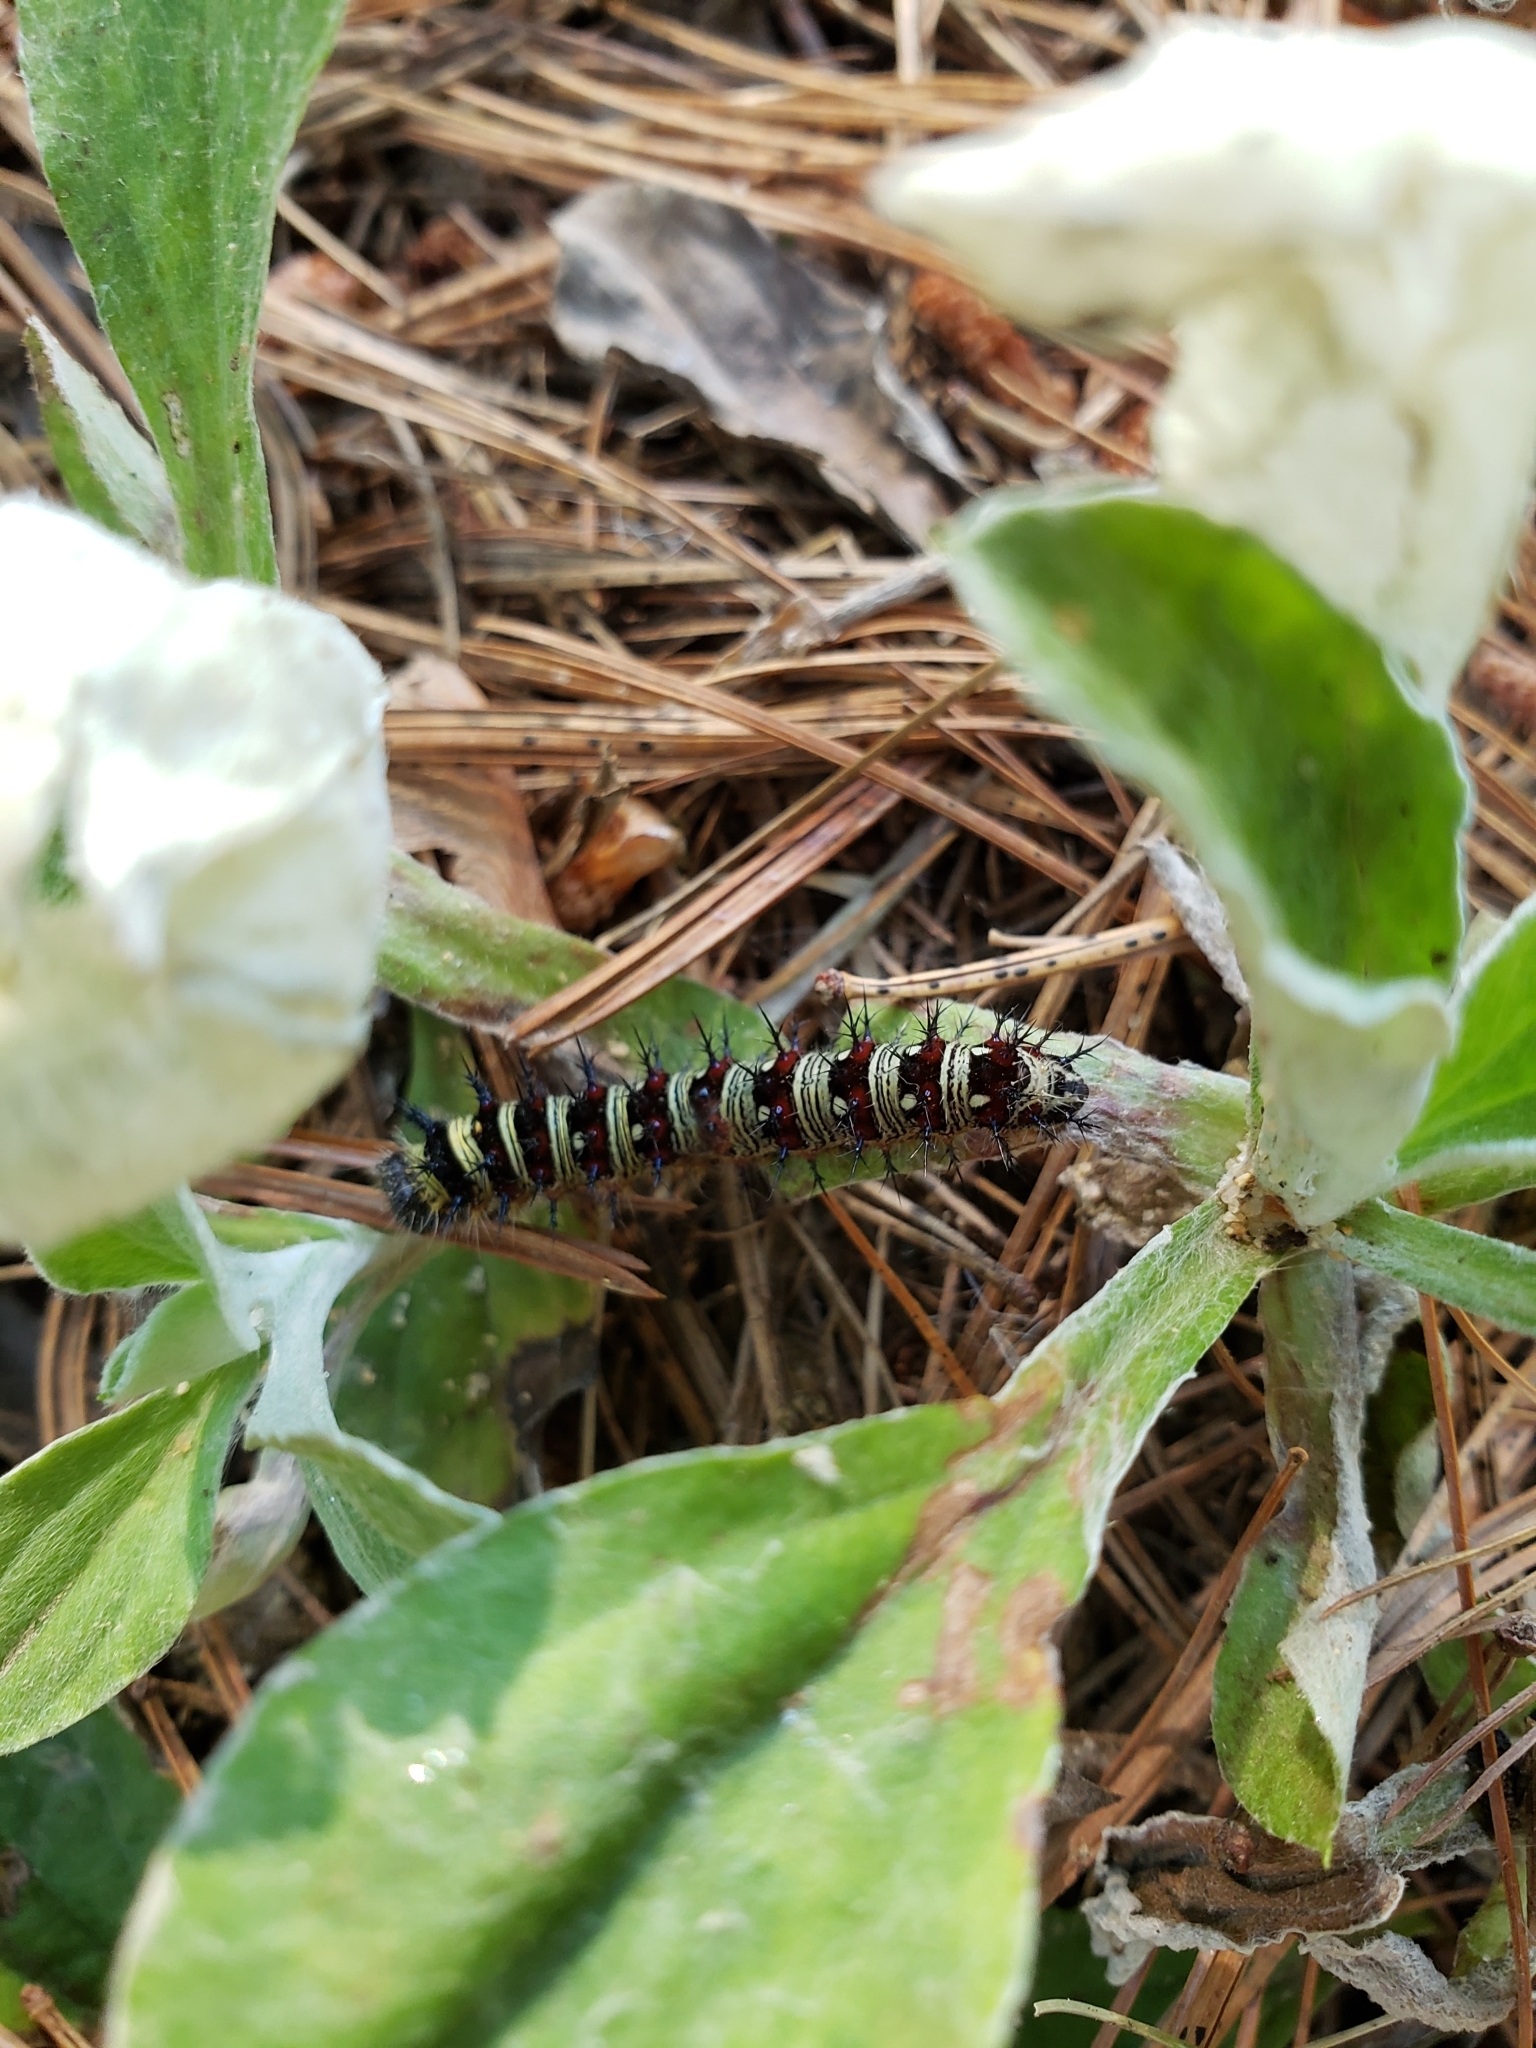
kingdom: Animalia
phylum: Arthropoda
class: Insecta
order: Lepidoptera
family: Nymphalidae
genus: Vanessa
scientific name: Vanessa virginiensis
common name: American lady
